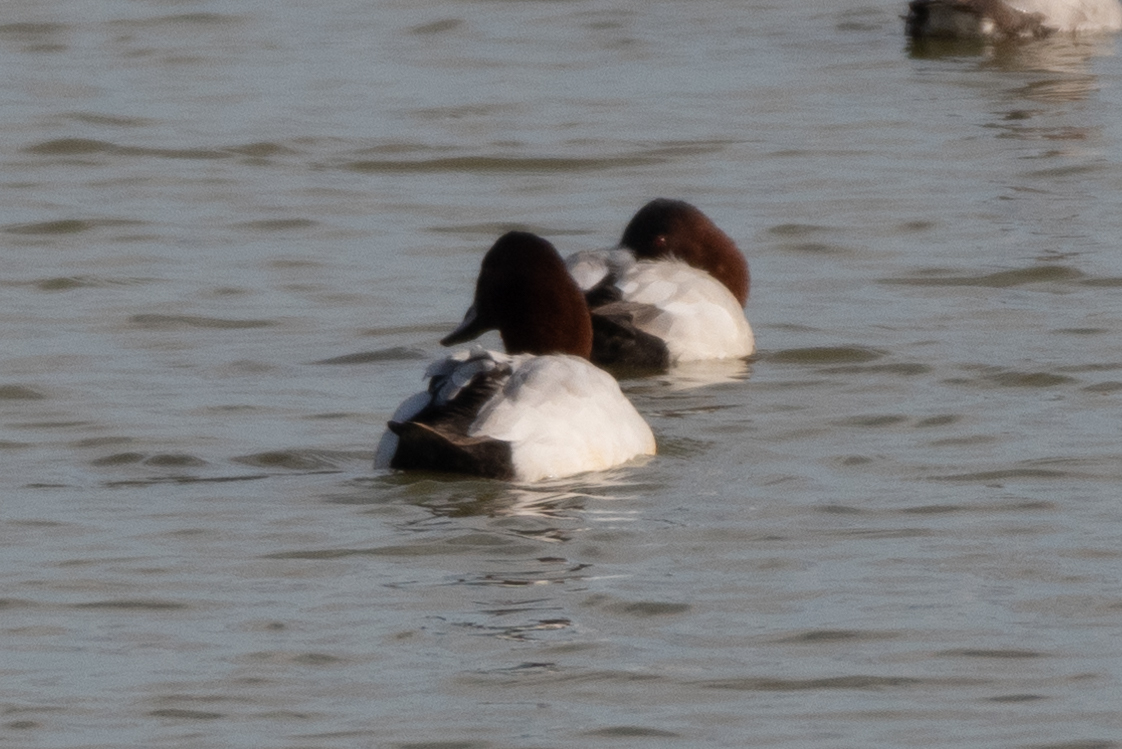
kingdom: Animalia
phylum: Chordata
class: Aves
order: Anseriformes
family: Anatidae
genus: Aythya
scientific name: Aythya valisineria
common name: Canvasback
